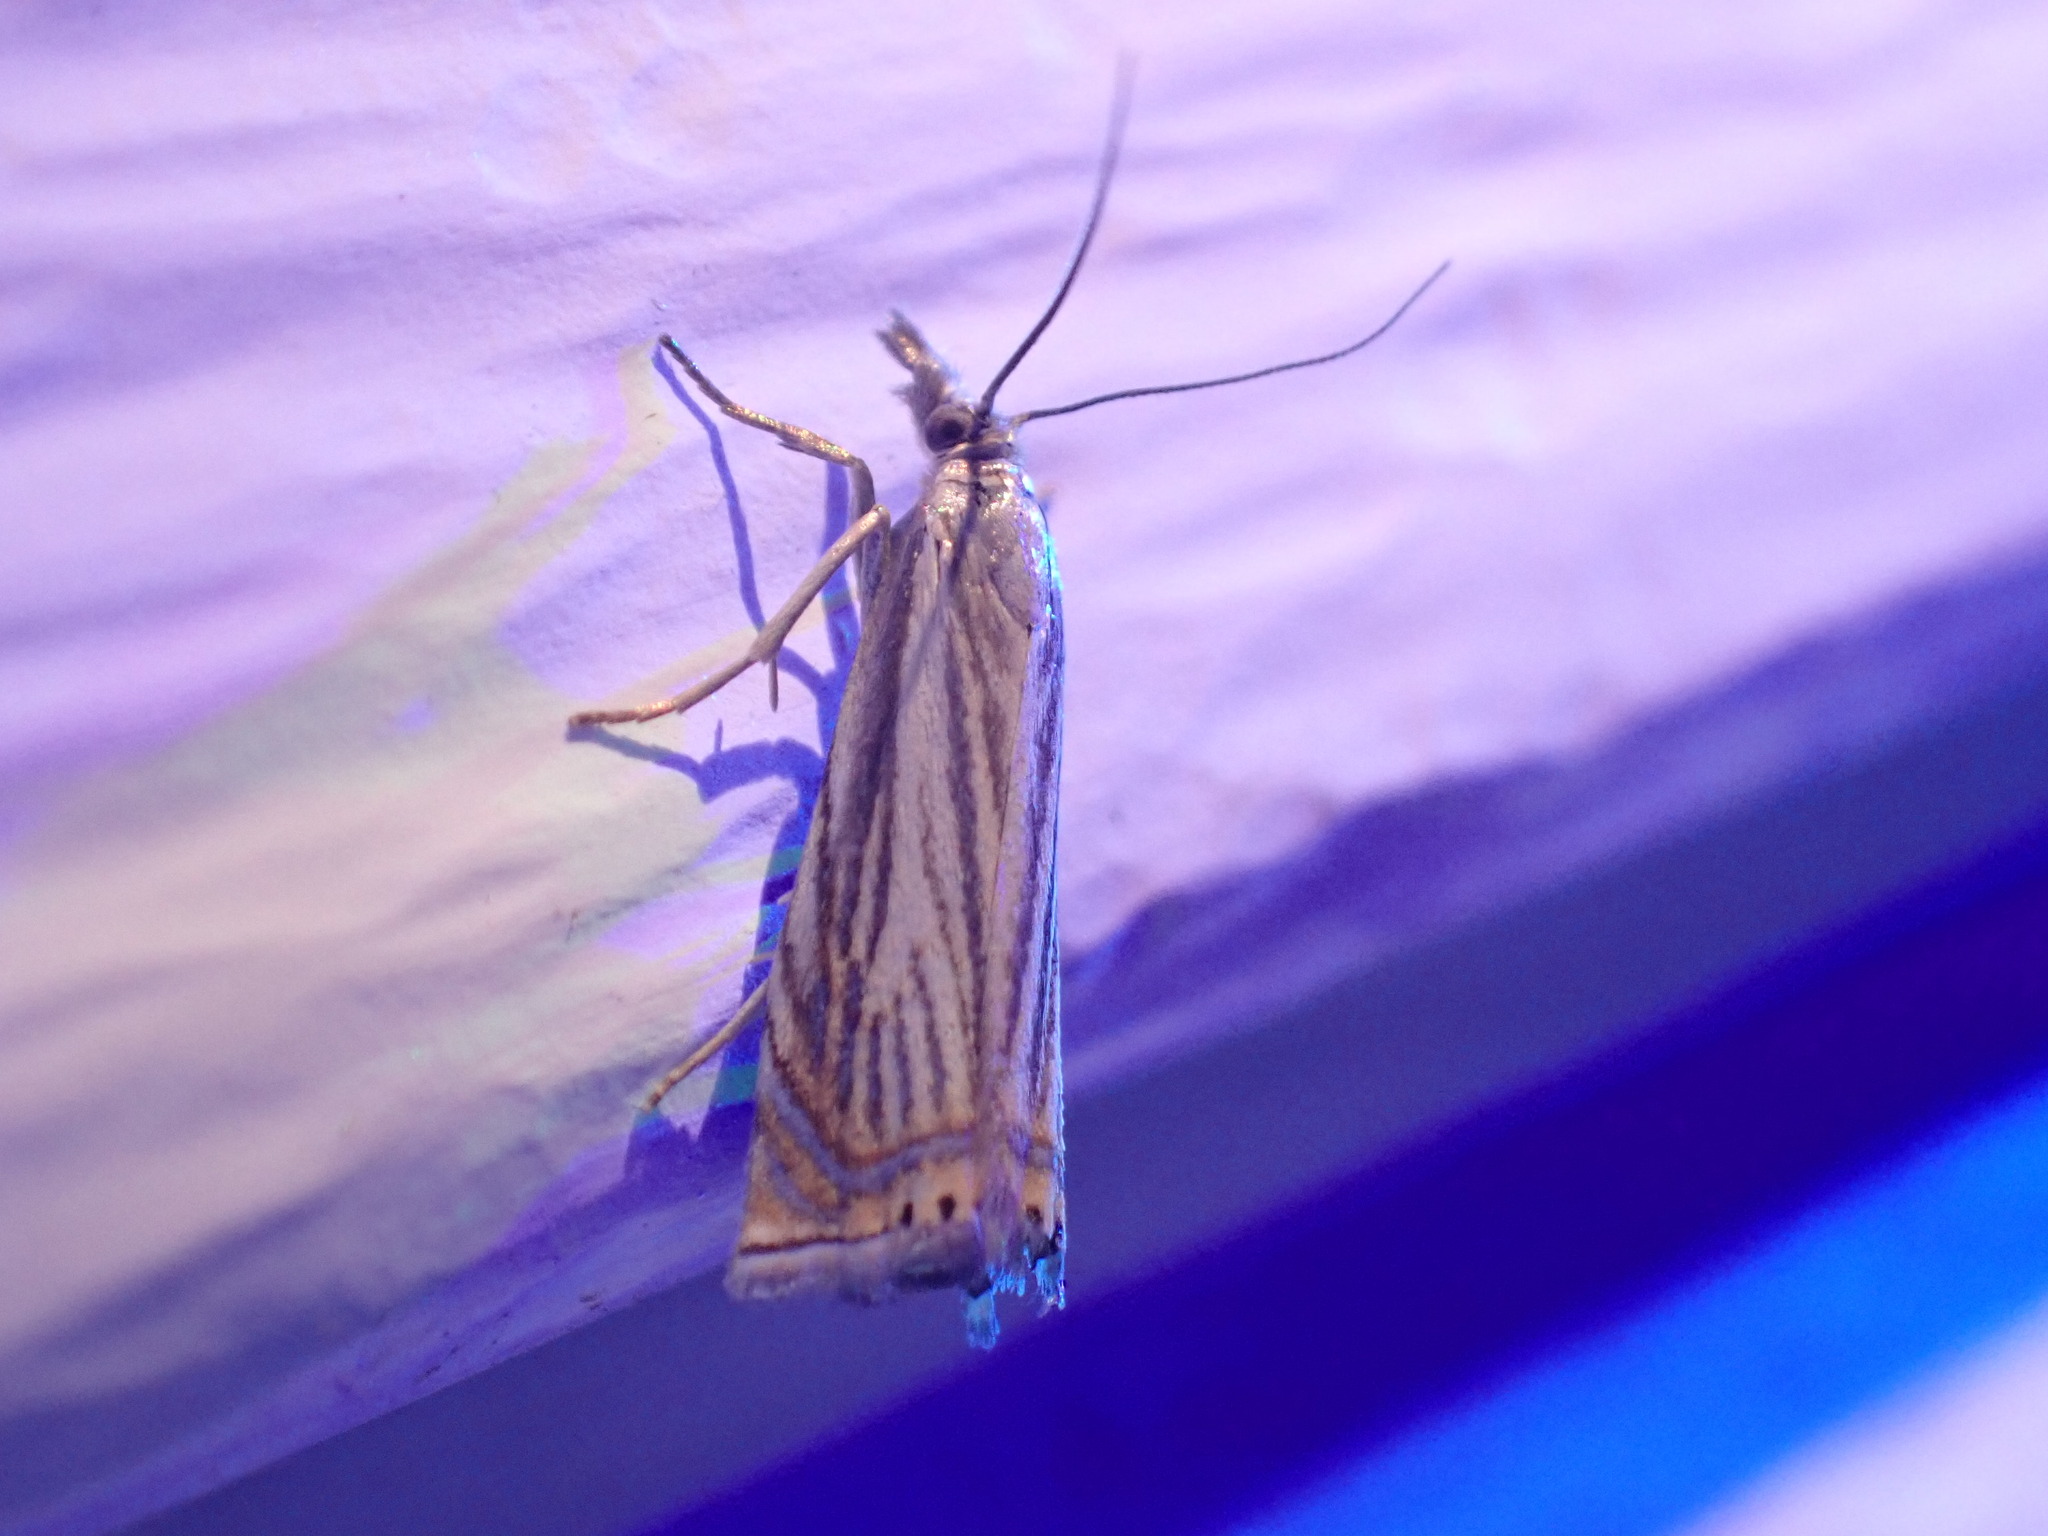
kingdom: Animalia
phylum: Arthropoda
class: Insecta
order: Lepidoptera
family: Crambidae
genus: Chrysoteuchia
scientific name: Chrysoteuchia topiarius
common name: Topiary grass-veneer
